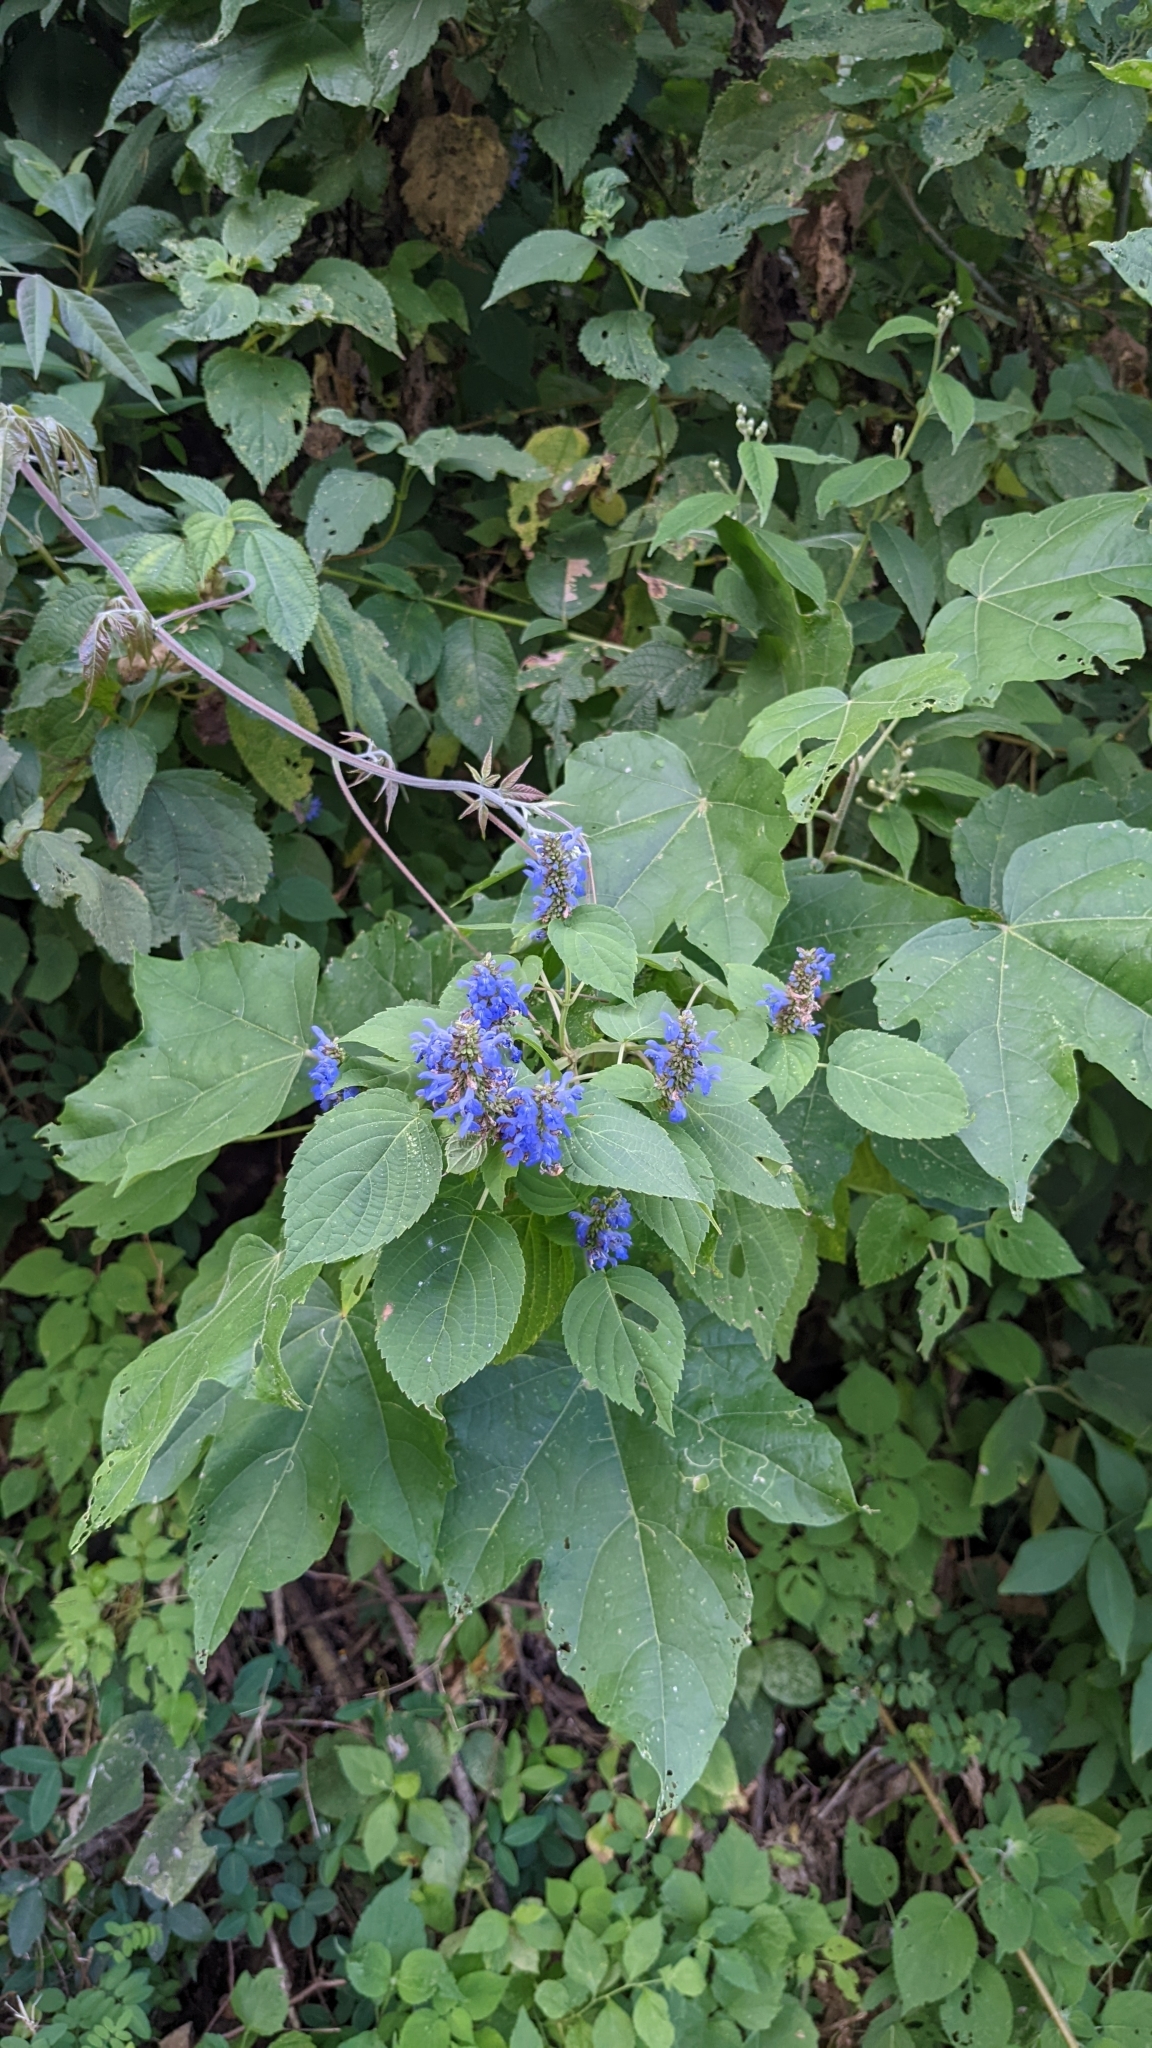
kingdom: Plantae
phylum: Tracheophyta
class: Magnoliopsida
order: Lamiales
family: Lamiaceae
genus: Salvia
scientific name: Salvia polystachia
